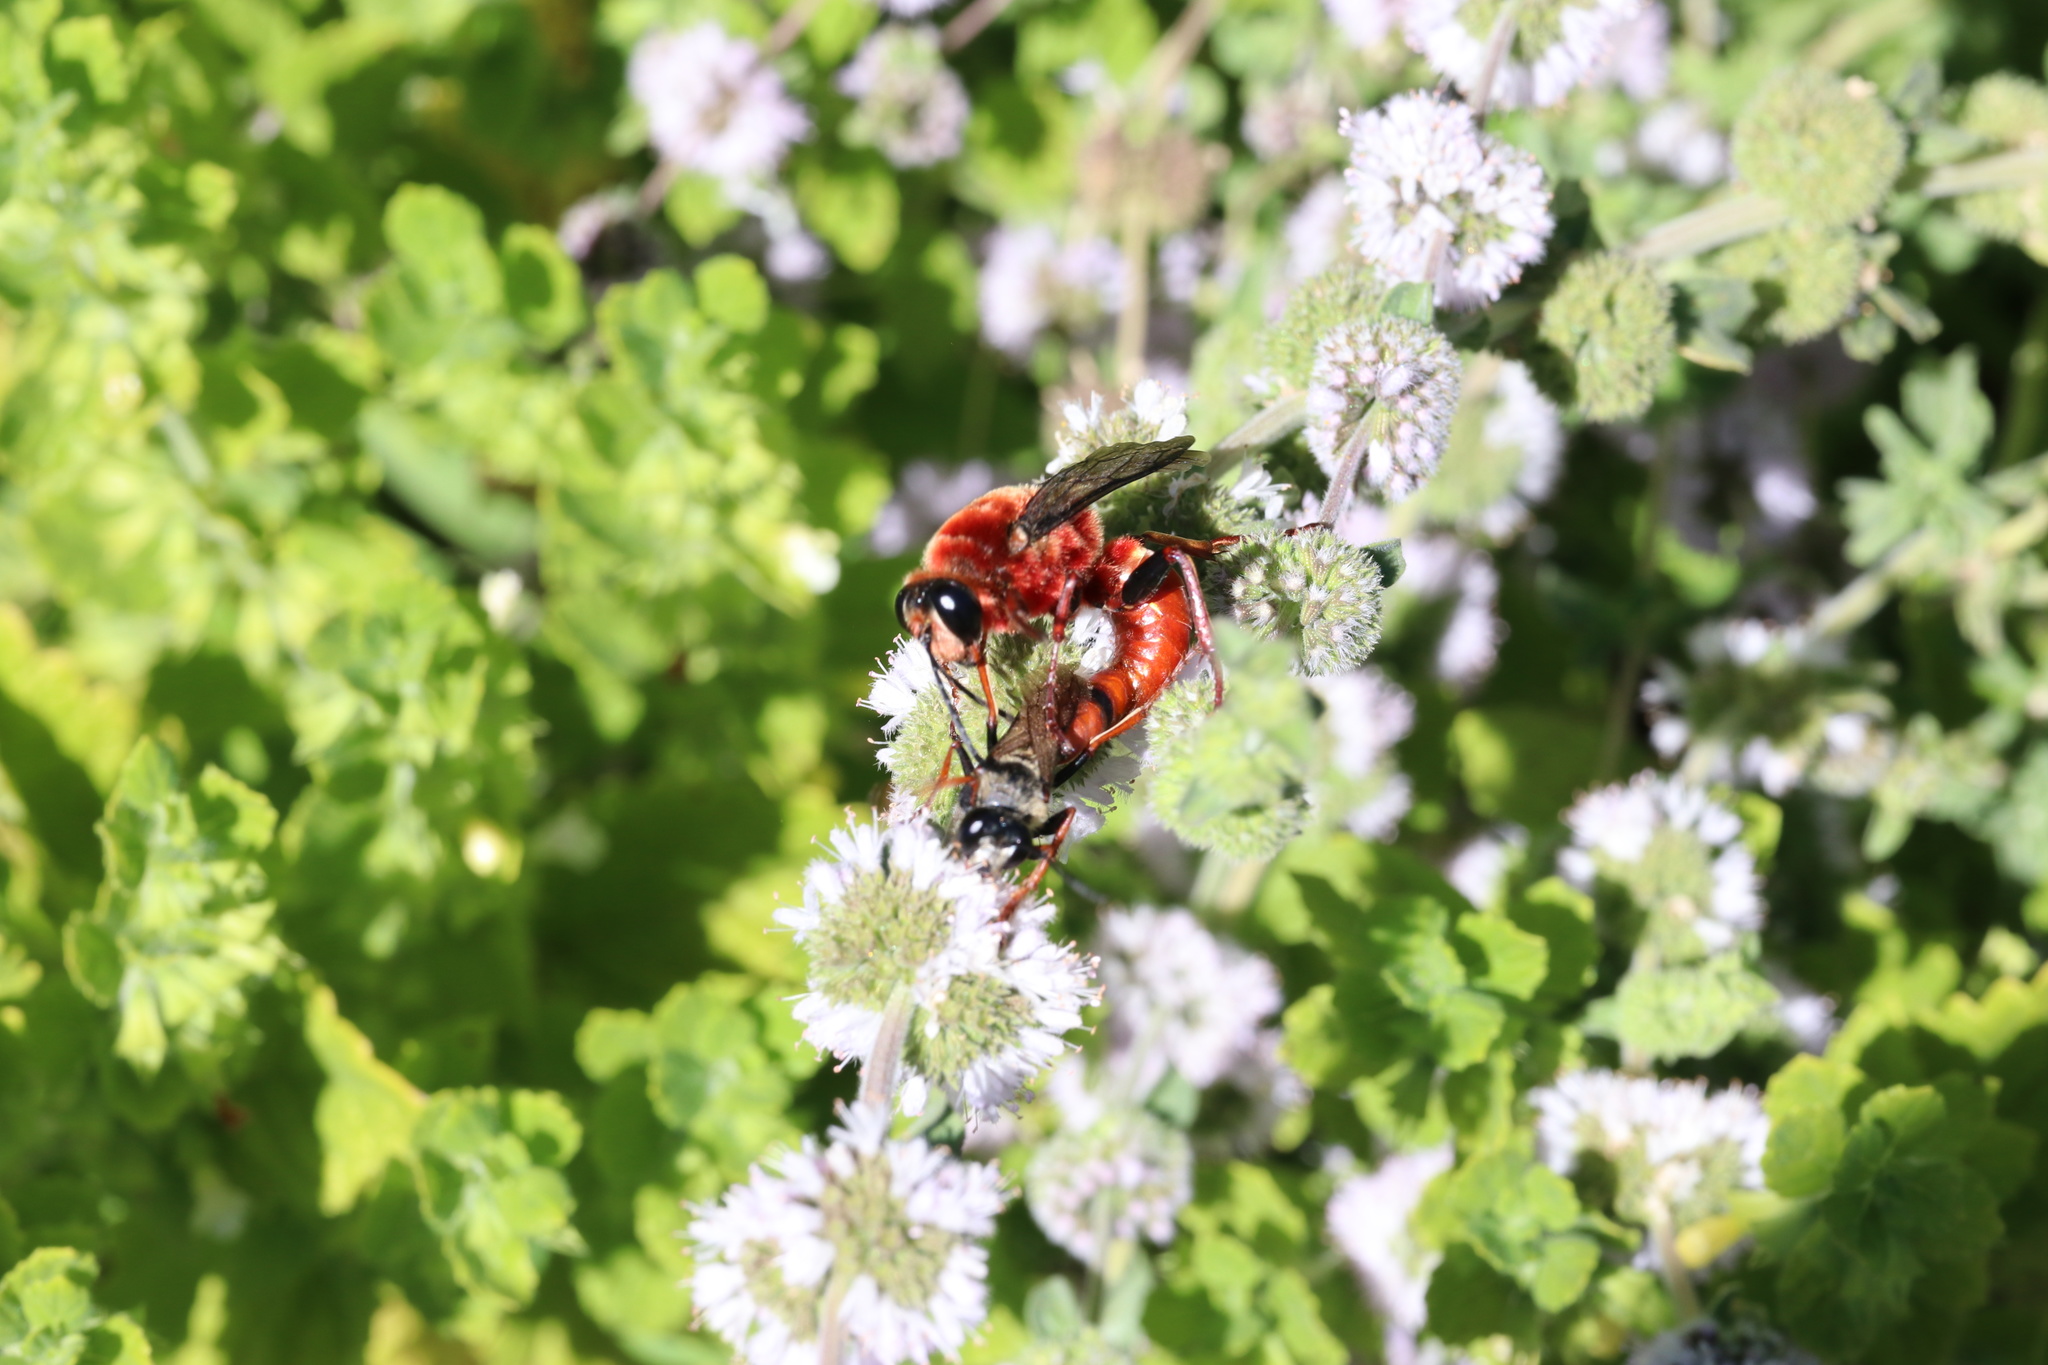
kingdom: Animalia
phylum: Arthropoda
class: Insecta
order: Hymenoptera
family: Sphecidae
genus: Sphex
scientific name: Sphex latreillei
